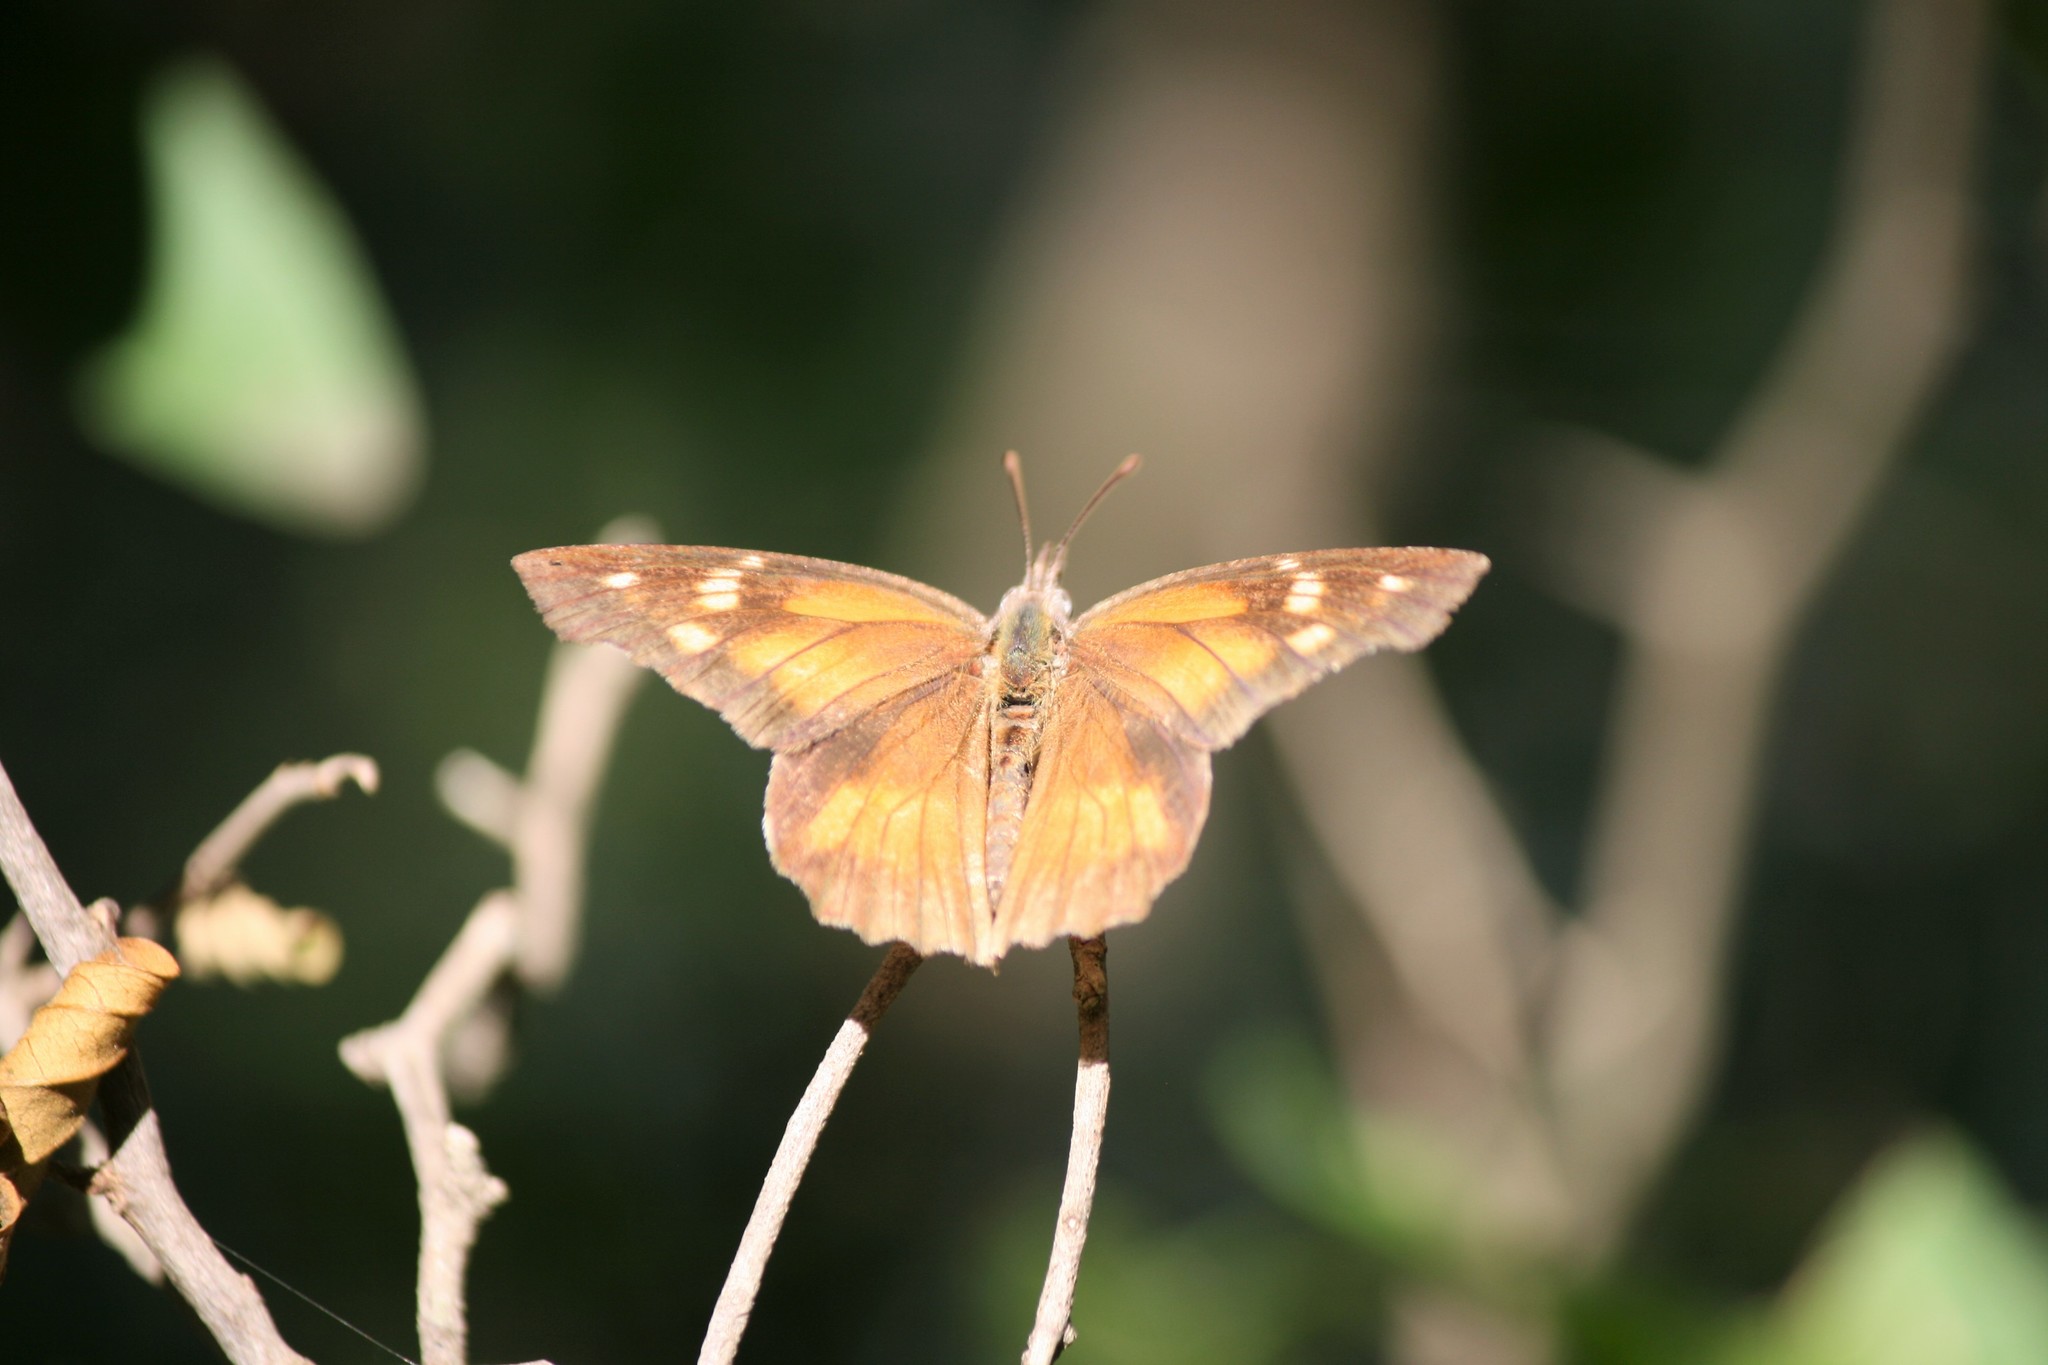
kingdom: Animalia
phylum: Arthropoda
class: Insecta
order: Lepidoptera
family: Nymphalidae
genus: Libytheana
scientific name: Libytheana carinenta
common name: American snout
